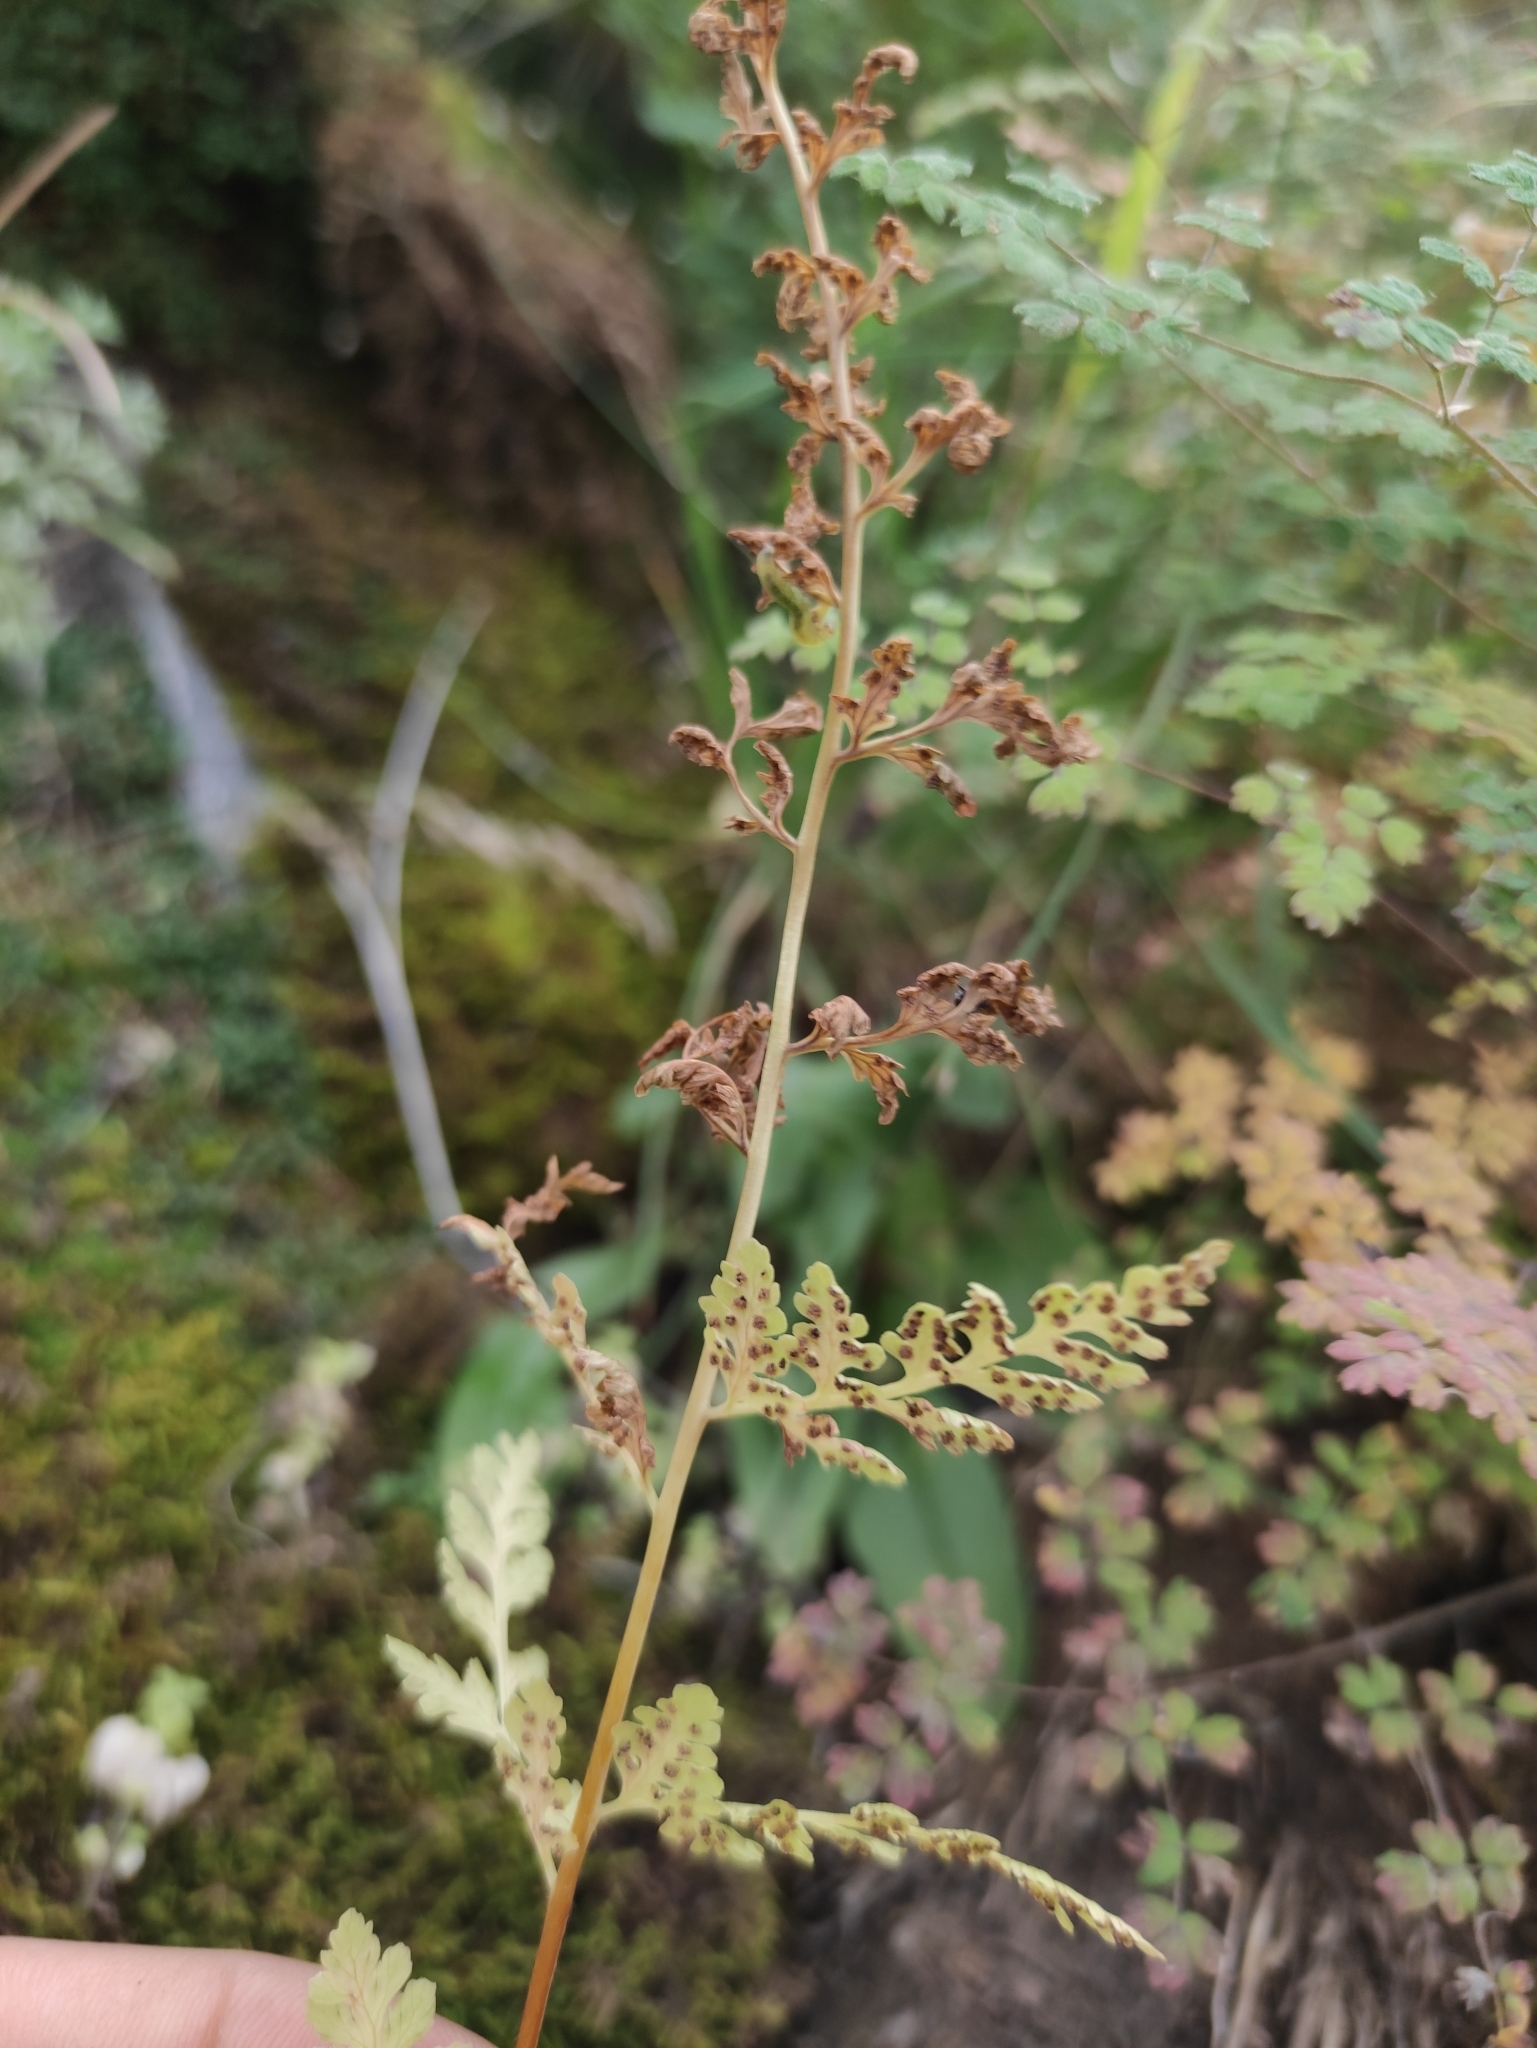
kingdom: Plantae
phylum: Tracheophyta
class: Polypodiopsida
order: Polypodiales
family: Cystopteridaceae
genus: Cystopteris
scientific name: Cystopteris fragilis
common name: Brittle bladder fern
